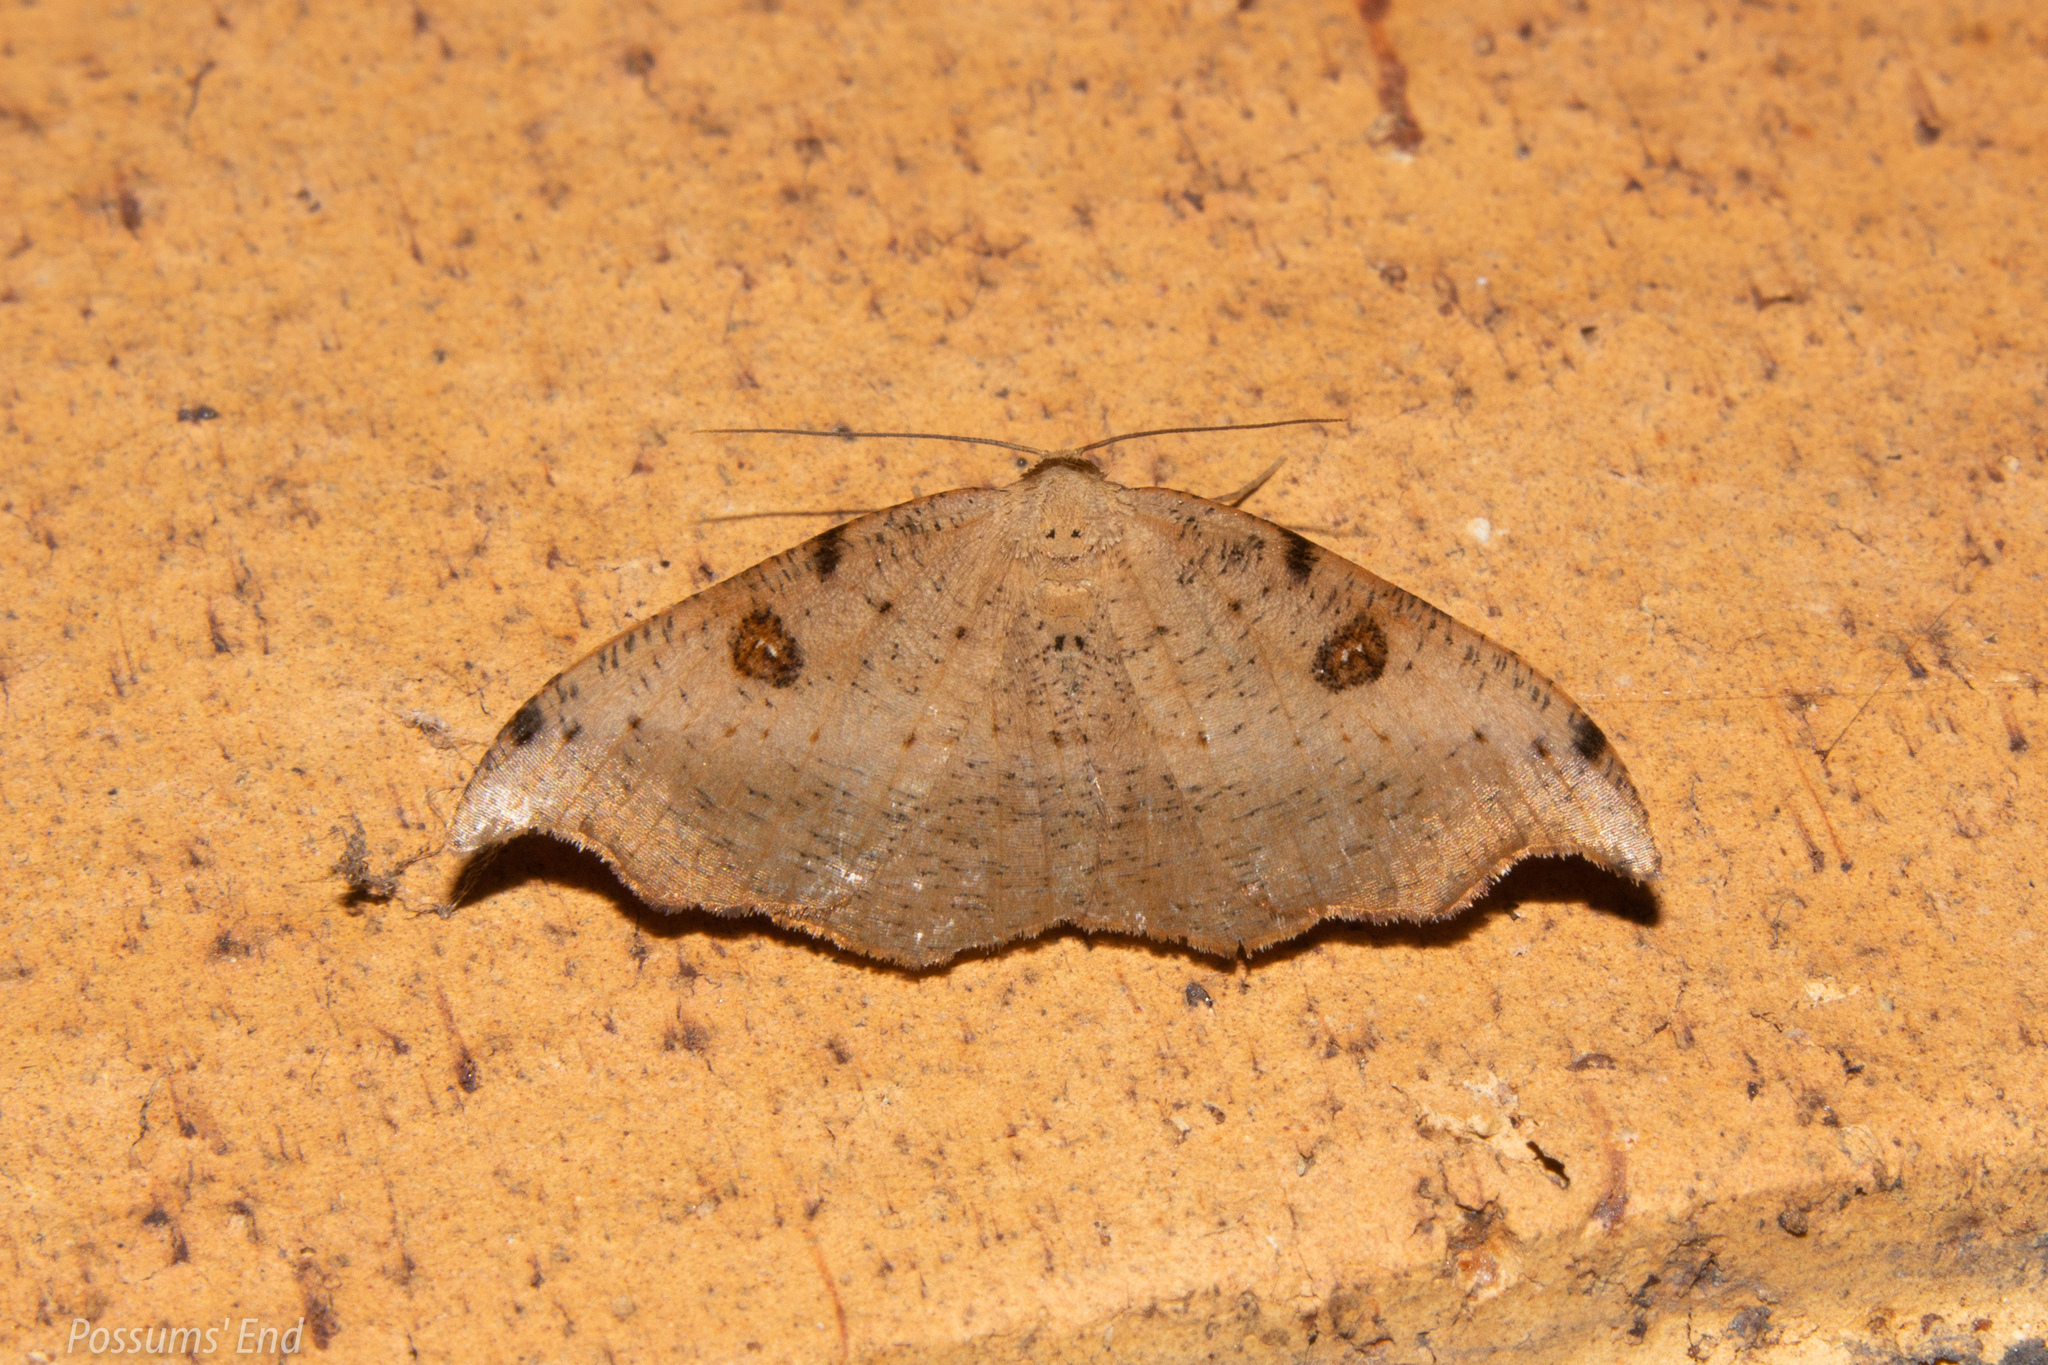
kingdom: Animalia
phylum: Arthropoda
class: Insecta
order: Lepidoptera
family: Geometridae
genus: Sarisa
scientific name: Sarisa muriferata
